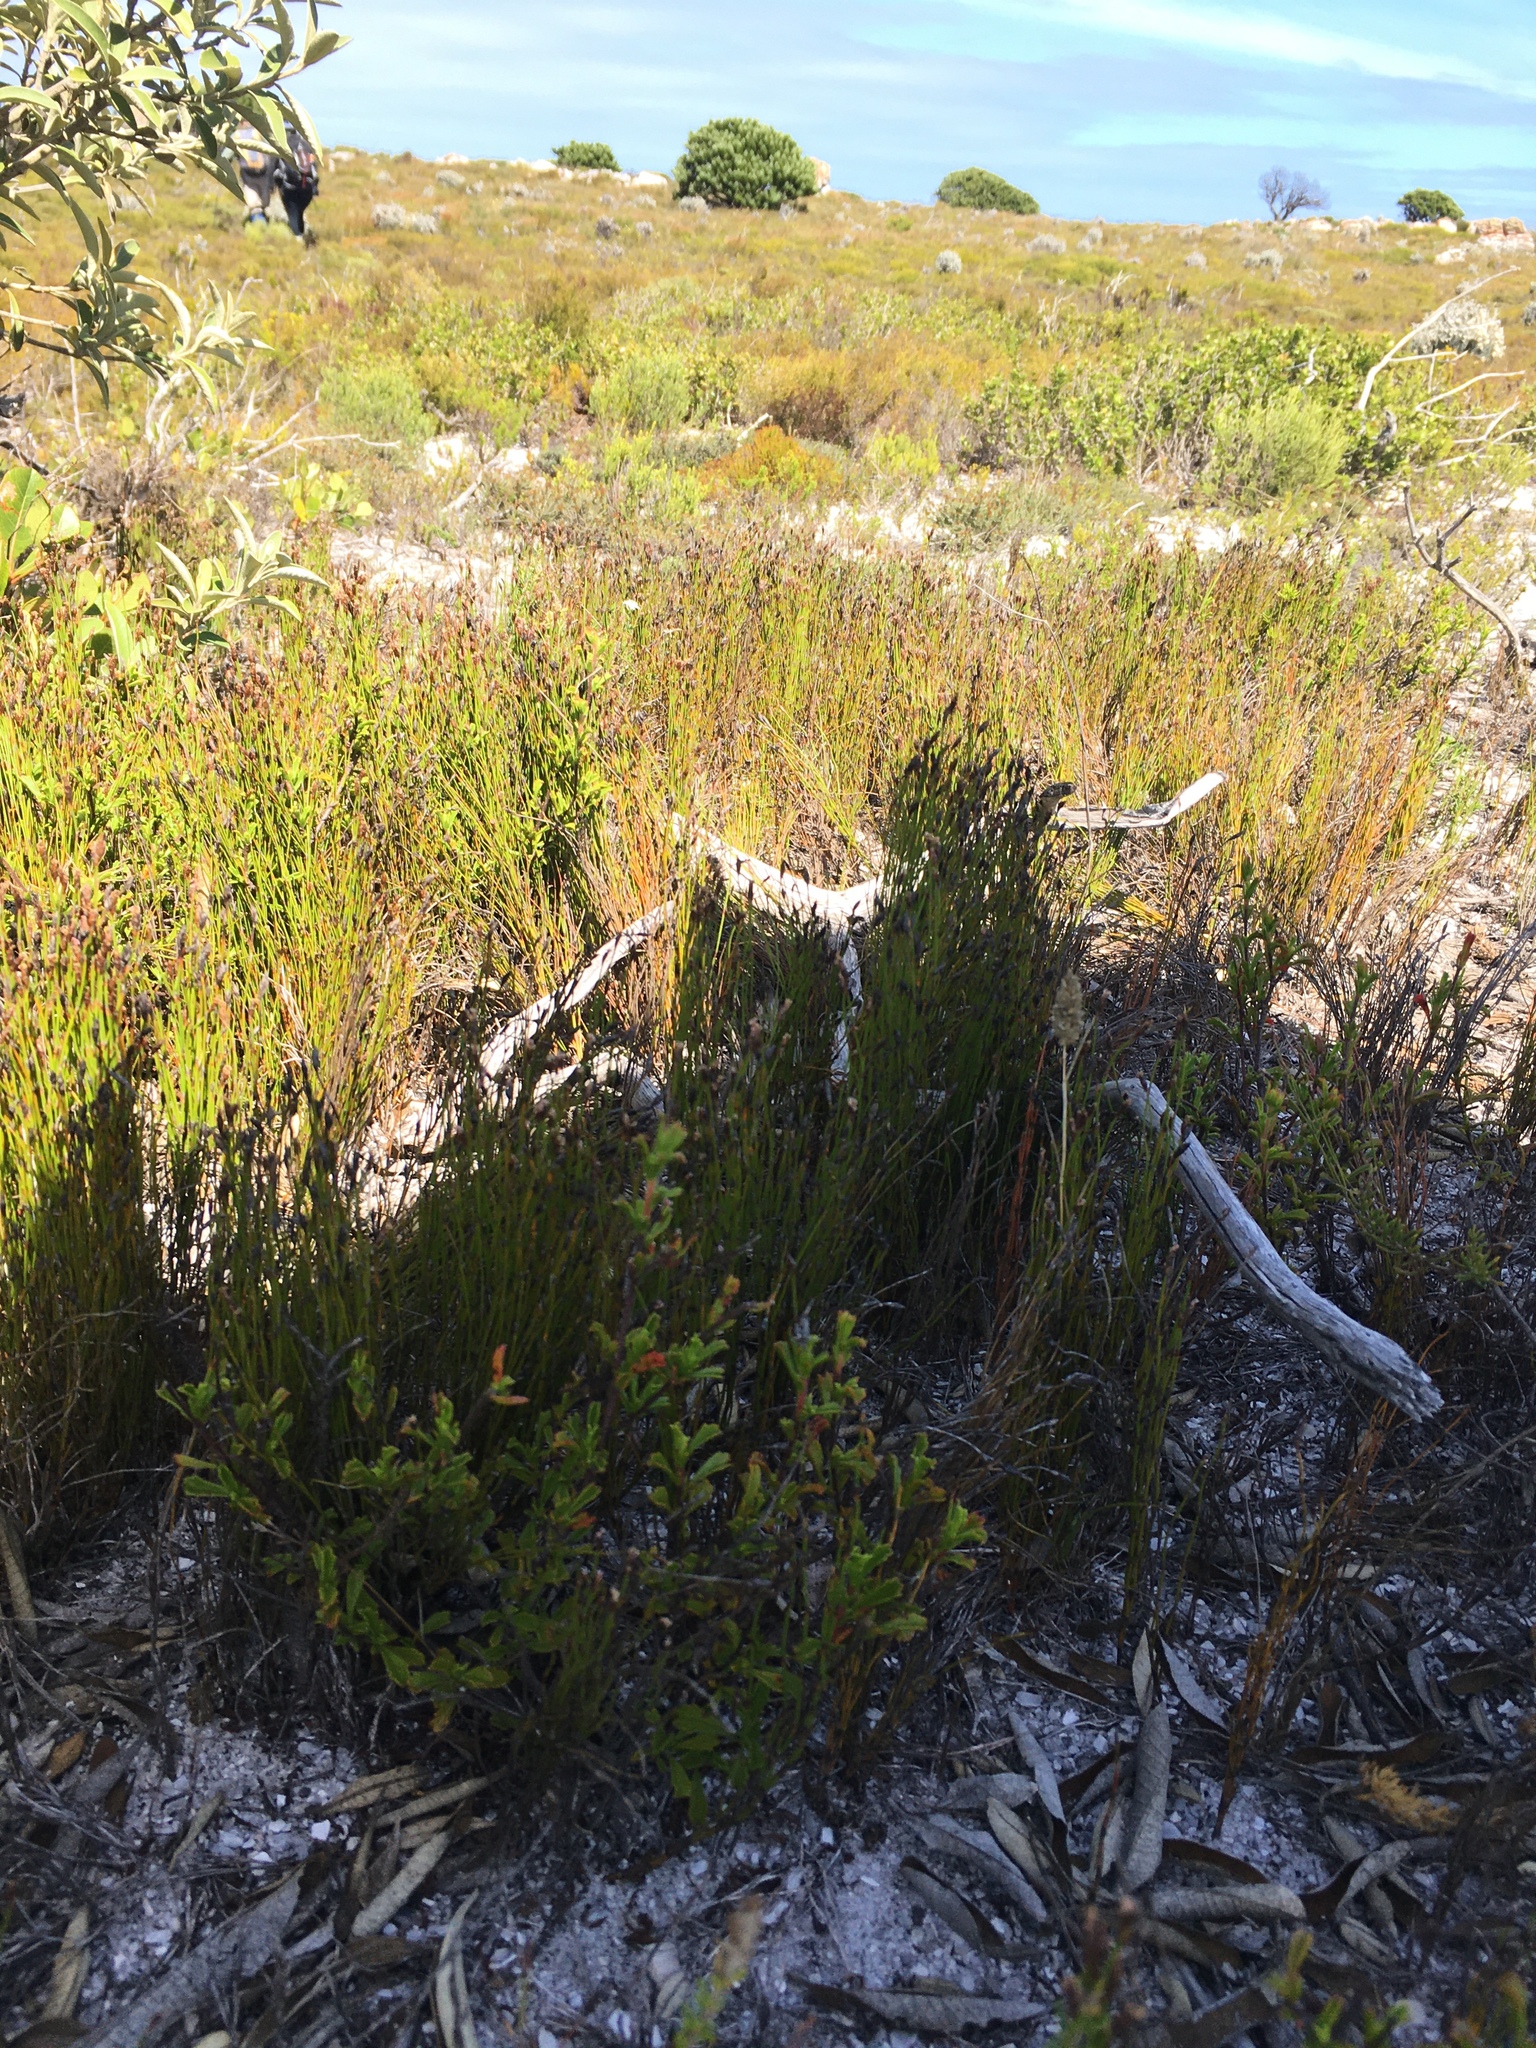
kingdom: Plantae
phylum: Tracheophyta
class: Liliopsida
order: Poales
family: Restionaceae
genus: Restio
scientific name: Restio eleocharis
